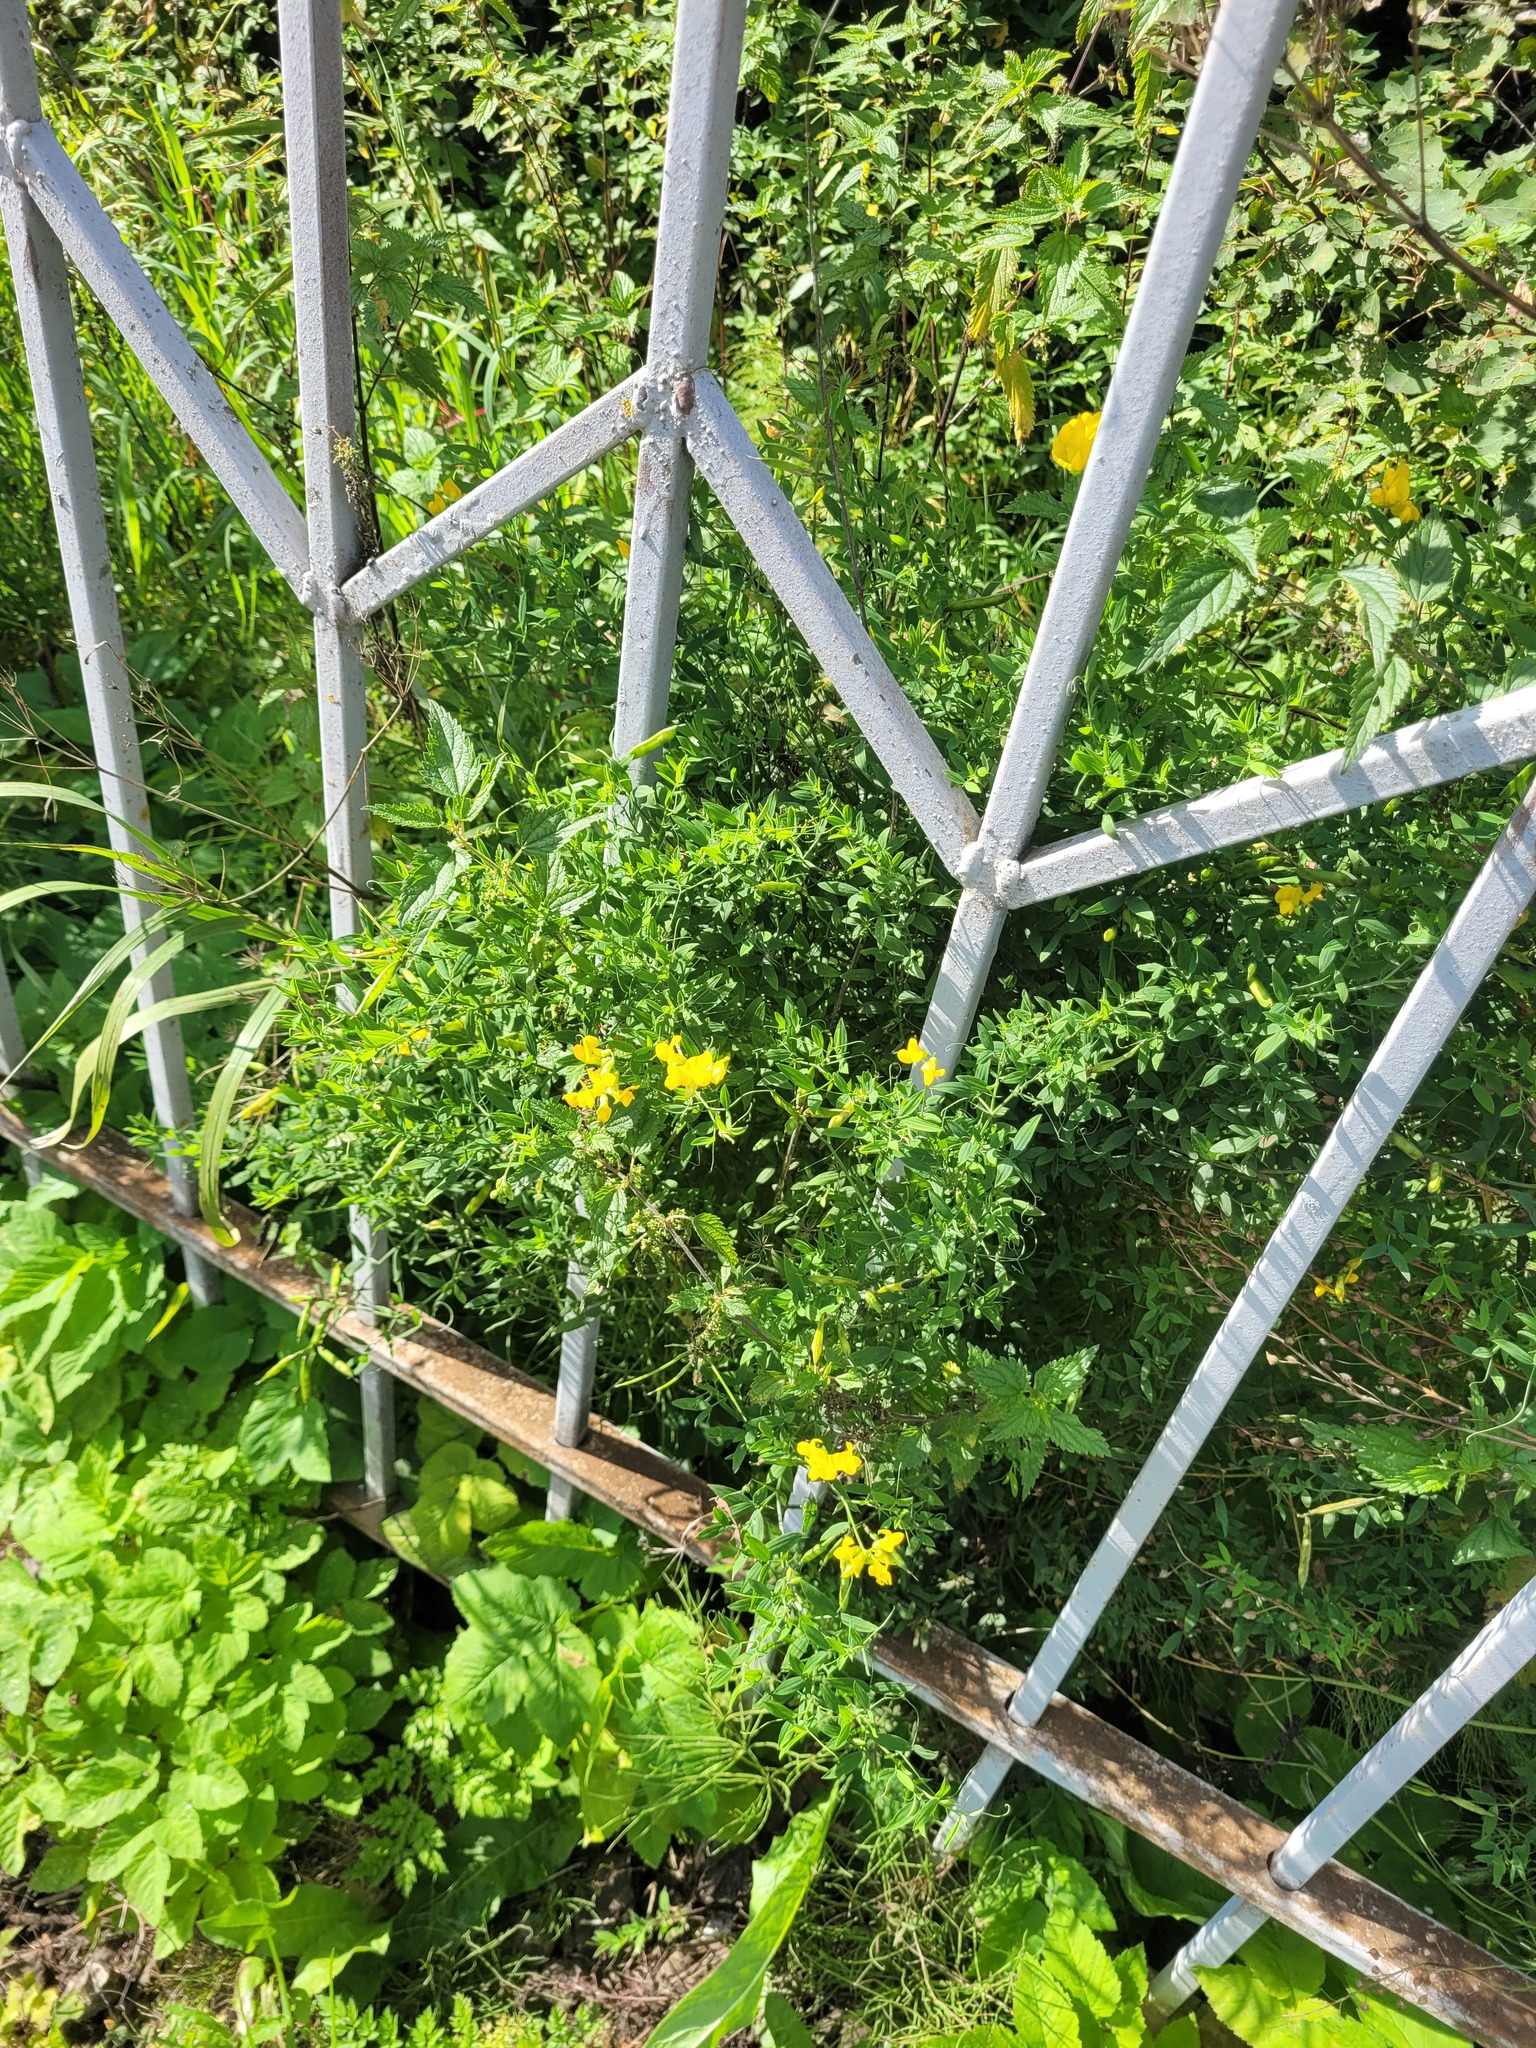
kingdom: Plantae
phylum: Tracheophyta
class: Magnoliopsida
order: Fabales
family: Fabaceae
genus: Lathyrus
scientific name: Lathyrus pratensis
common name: Meadow vetchling
